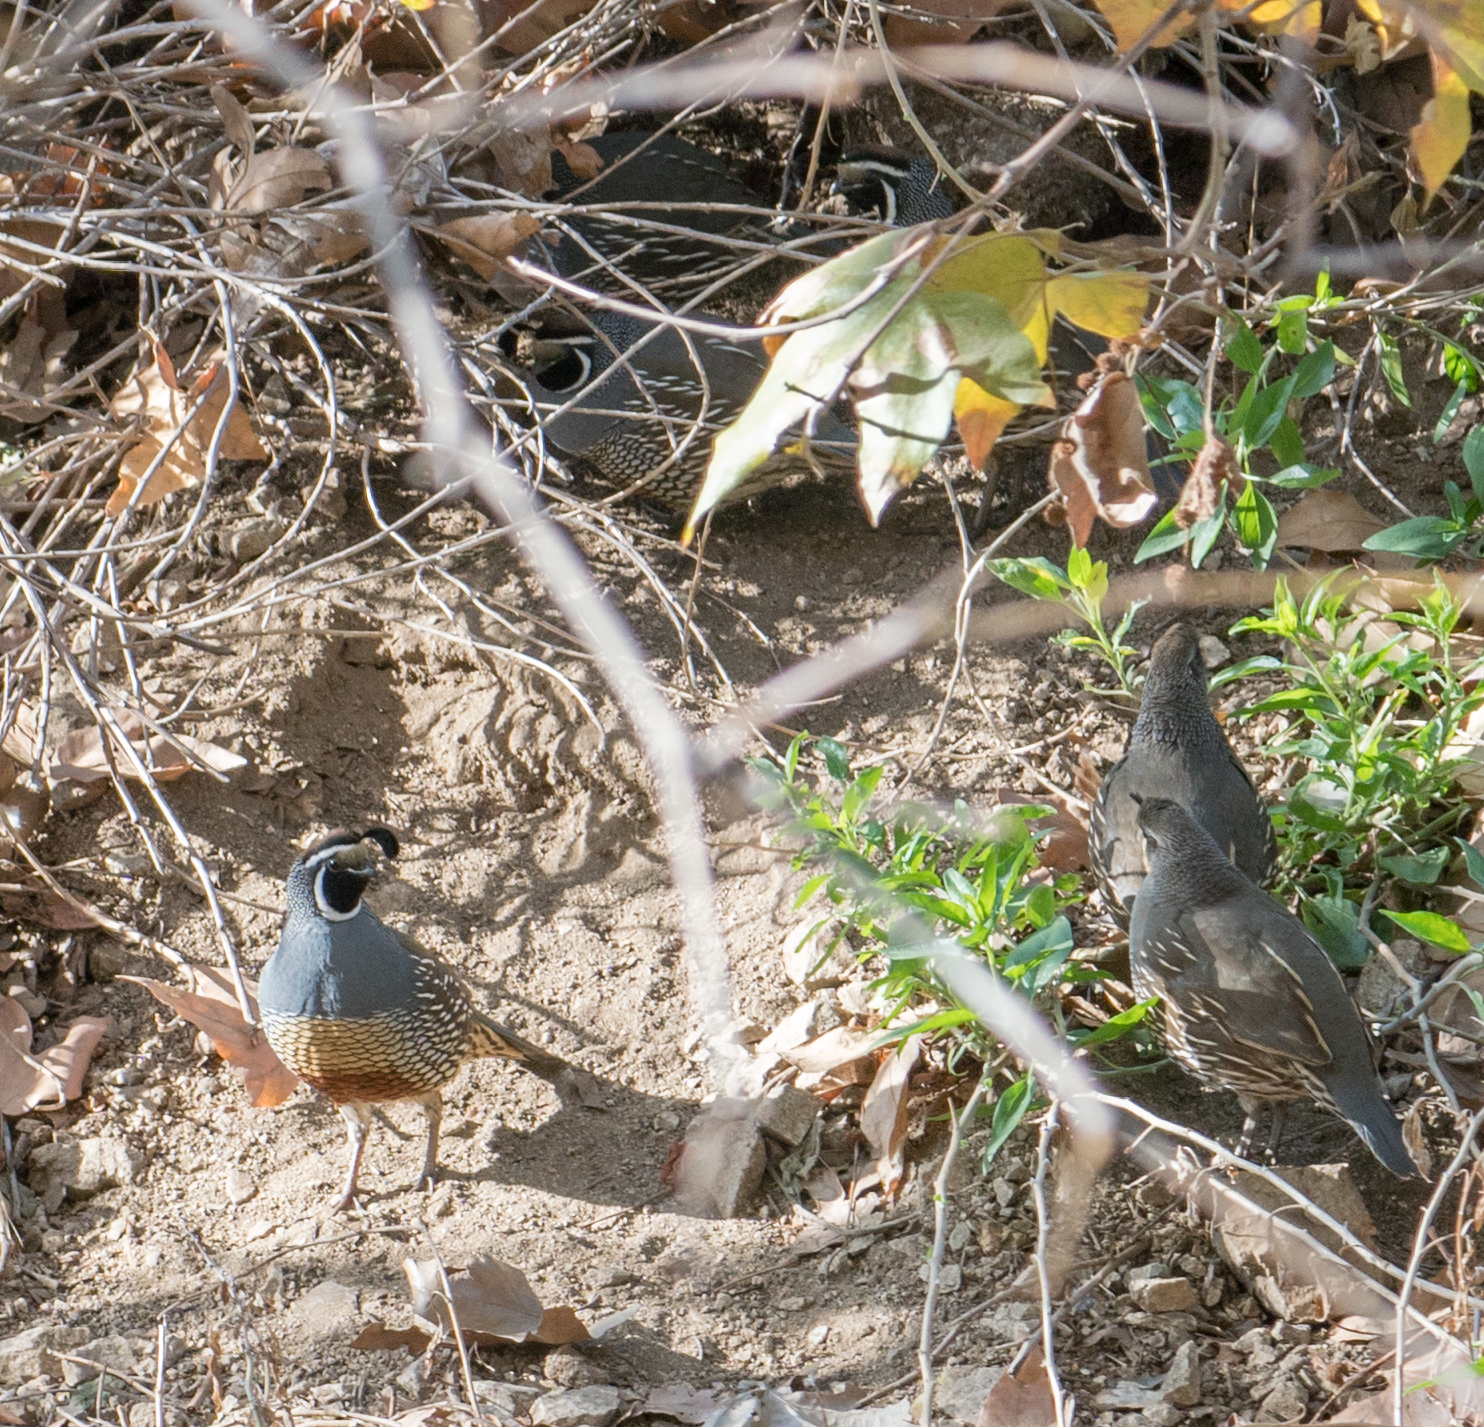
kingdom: Animalia
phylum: Chordata
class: Aves
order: Galliformes
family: Odontophoridae
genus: Callipepla
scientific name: Callipepla californica
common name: California quail
